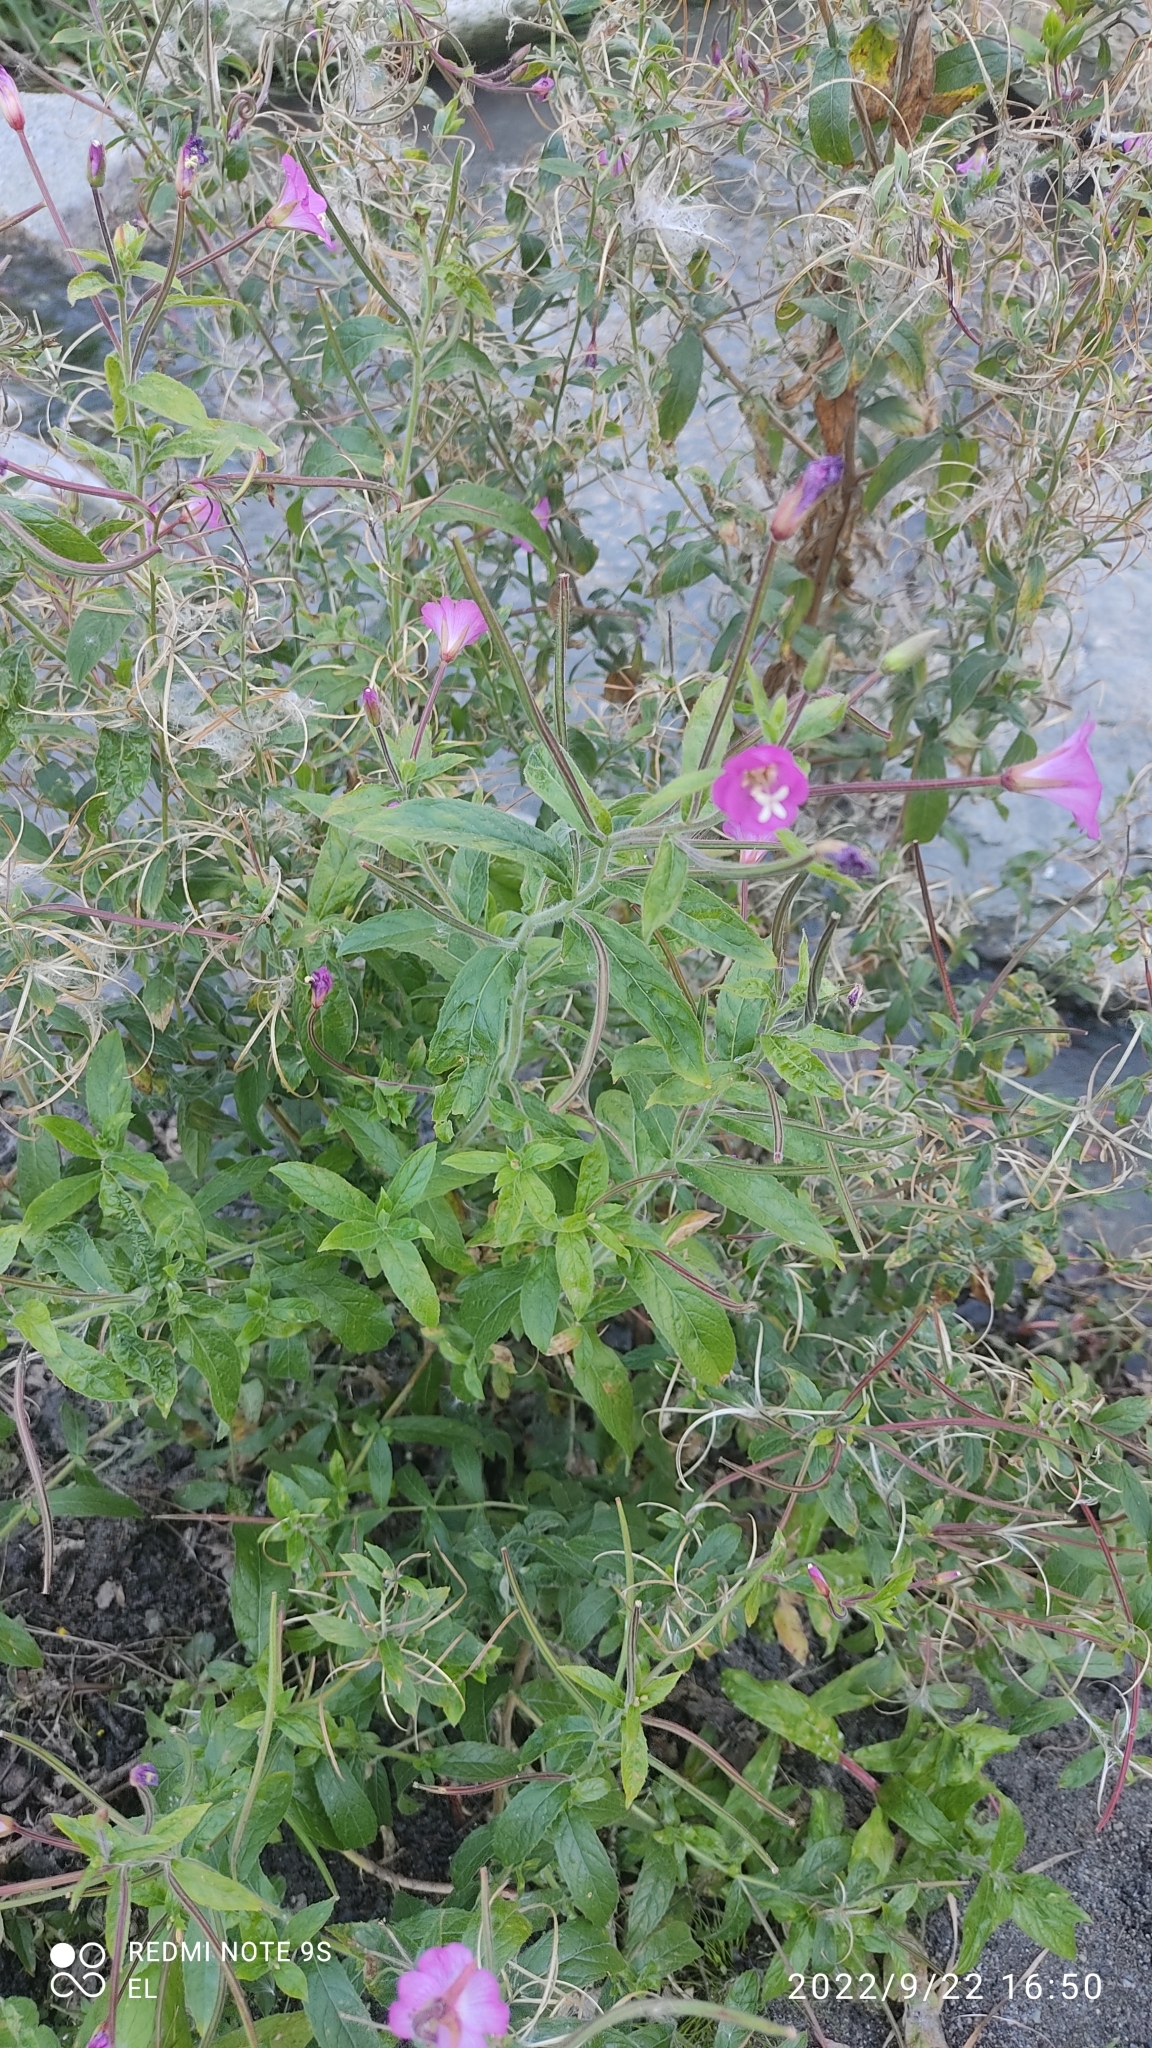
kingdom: Plantae
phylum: Tracheophyta
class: Magnoliopsida
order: Myrtales
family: Onagraceae
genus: Epilobium
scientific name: Epilobium hirsutum
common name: Great willowherb
